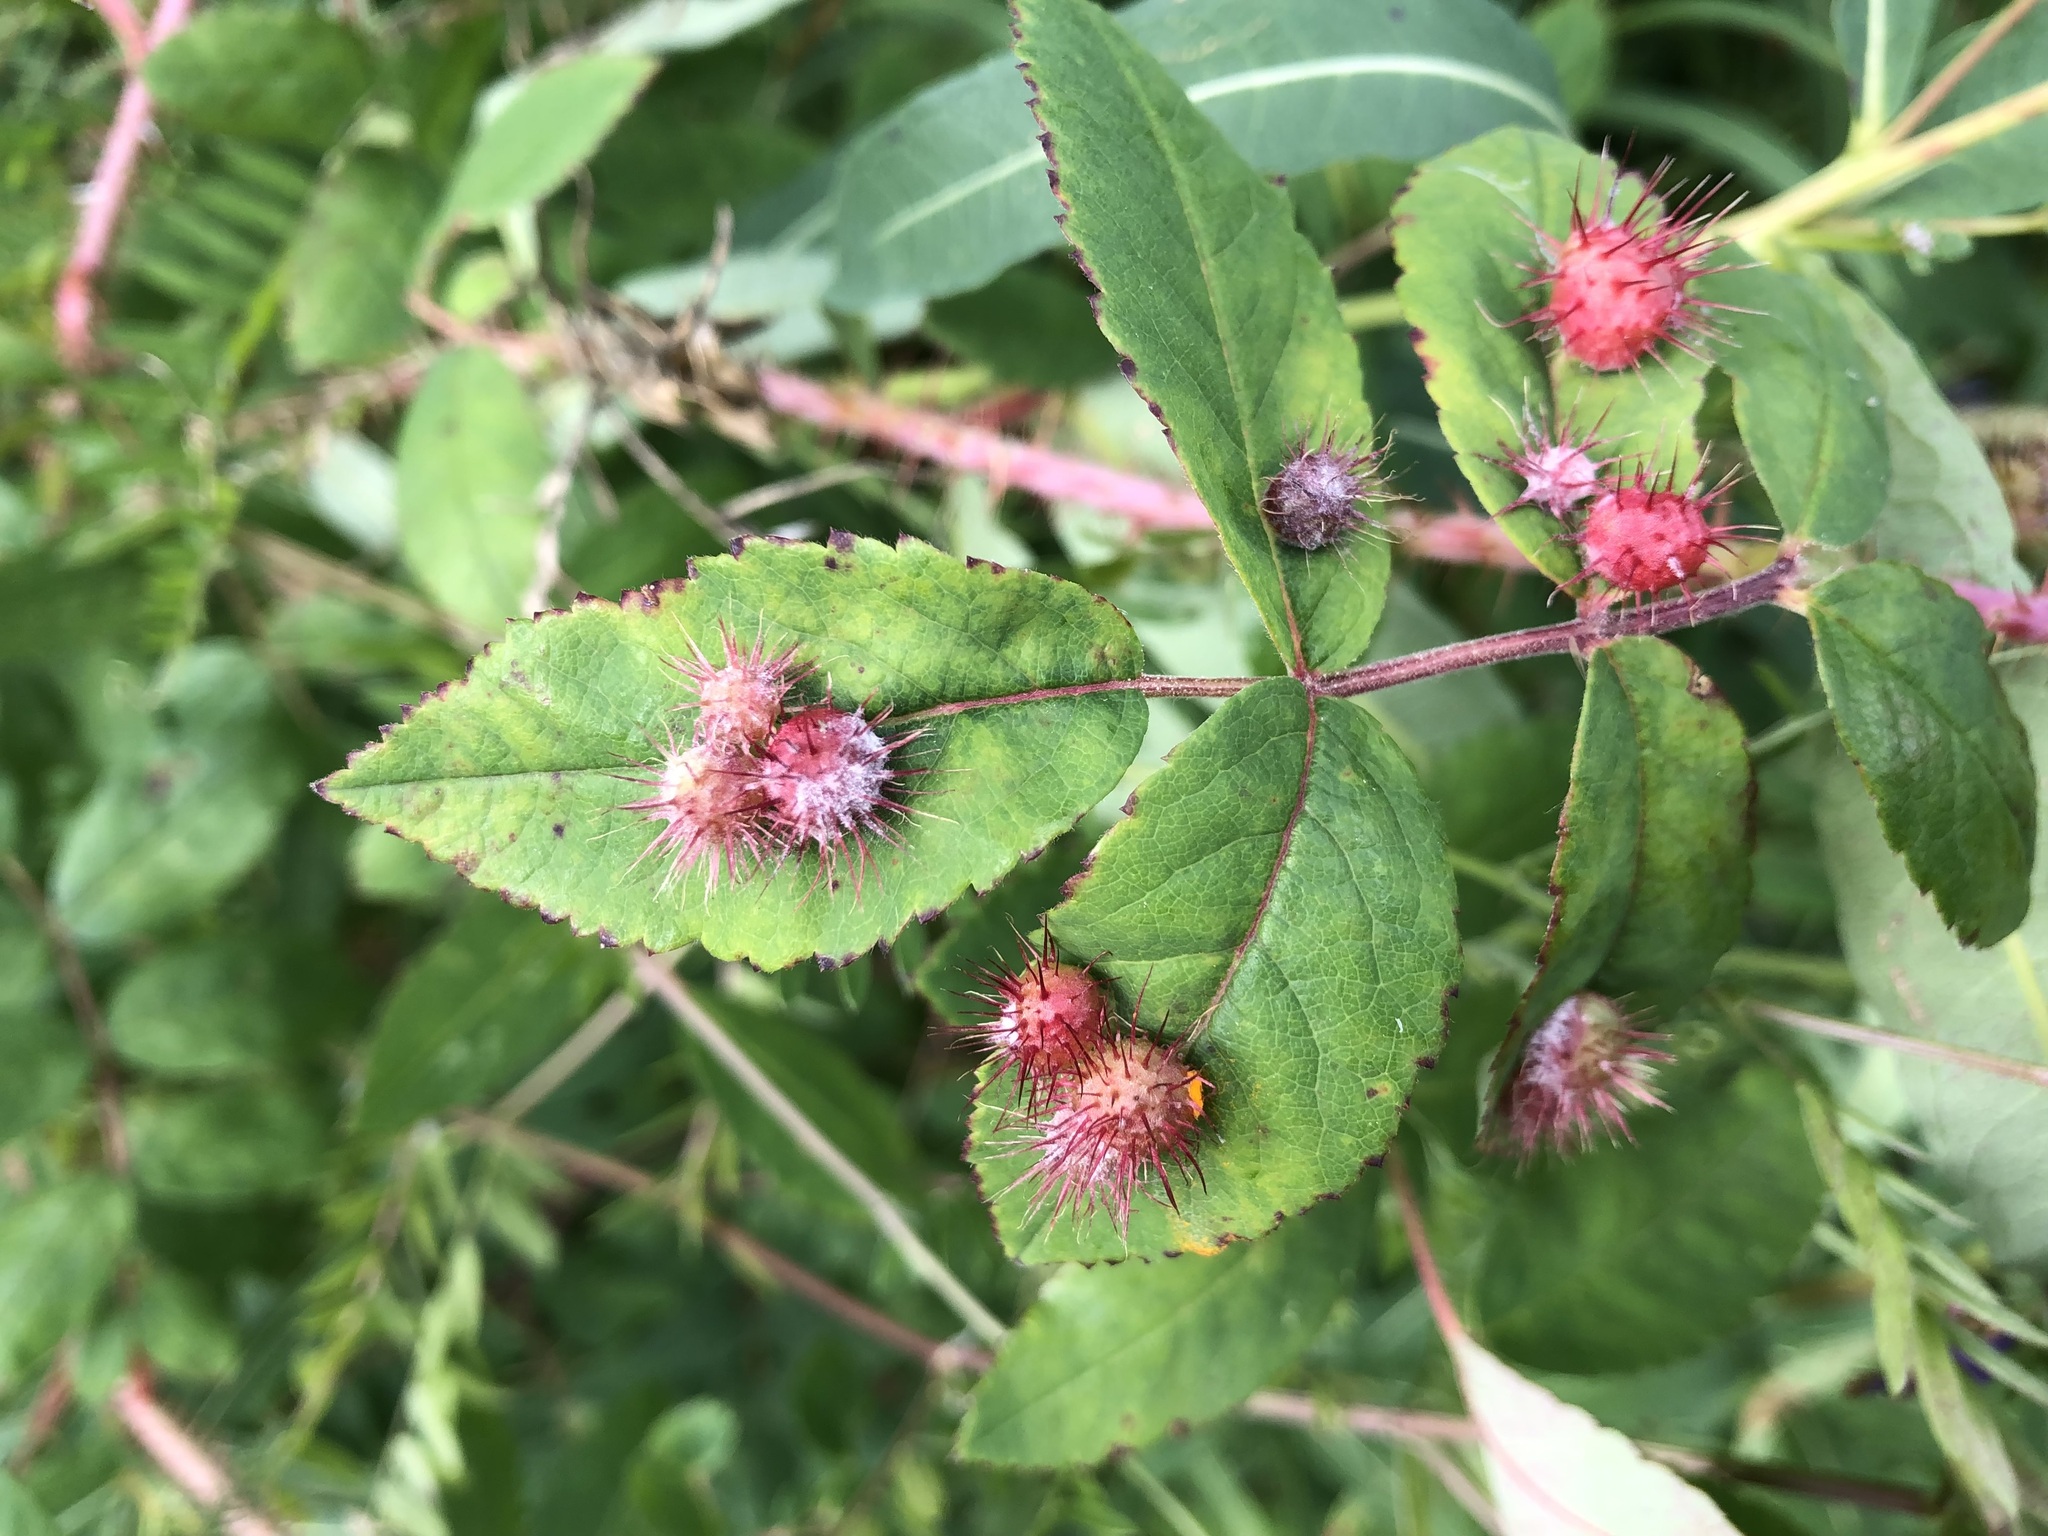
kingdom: Animalia
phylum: Arthropoda
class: Insecta
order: Hymenoptera
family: Cynipidae
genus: Diplolepis
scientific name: Diplolepis polita
